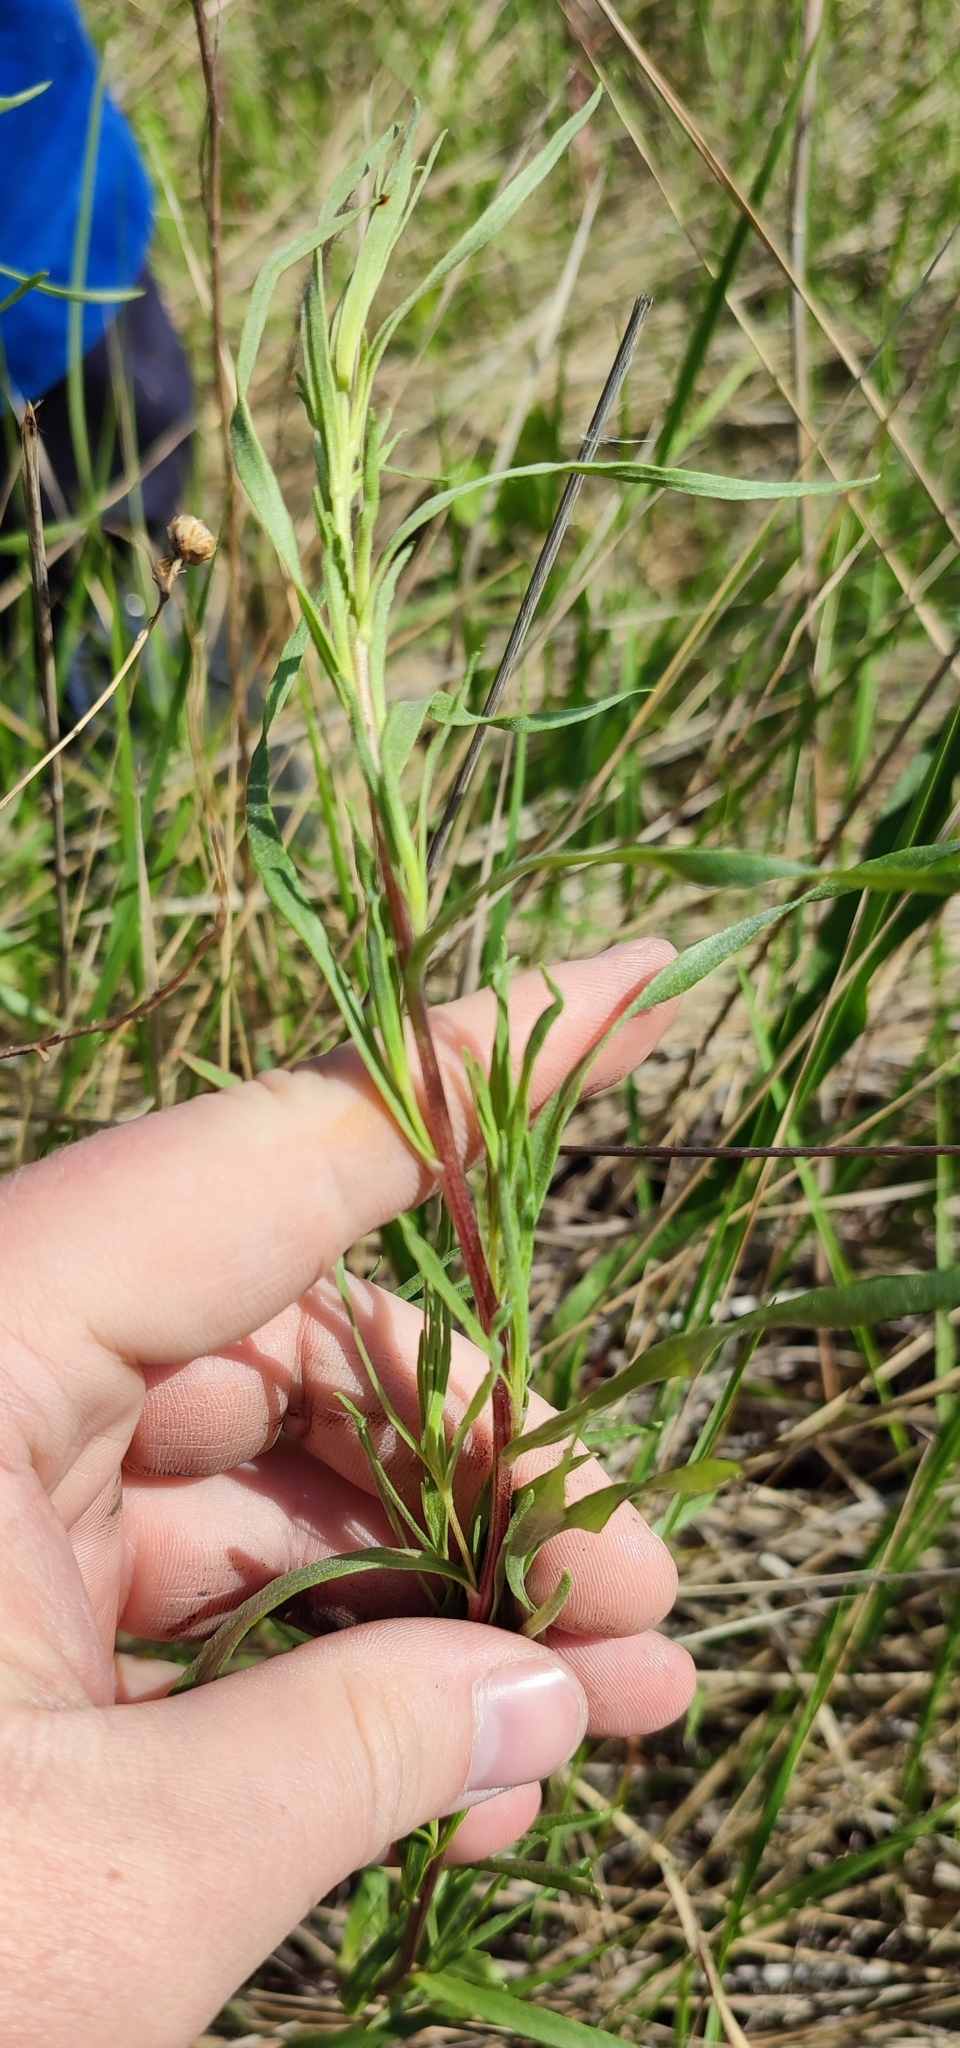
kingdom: Plantae
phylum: Tracheophyta
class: Magnoliopsida
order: Asterales
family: Asteraceae
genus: Artemisia
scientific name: Artemisia dracunculus
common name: Tarragon
